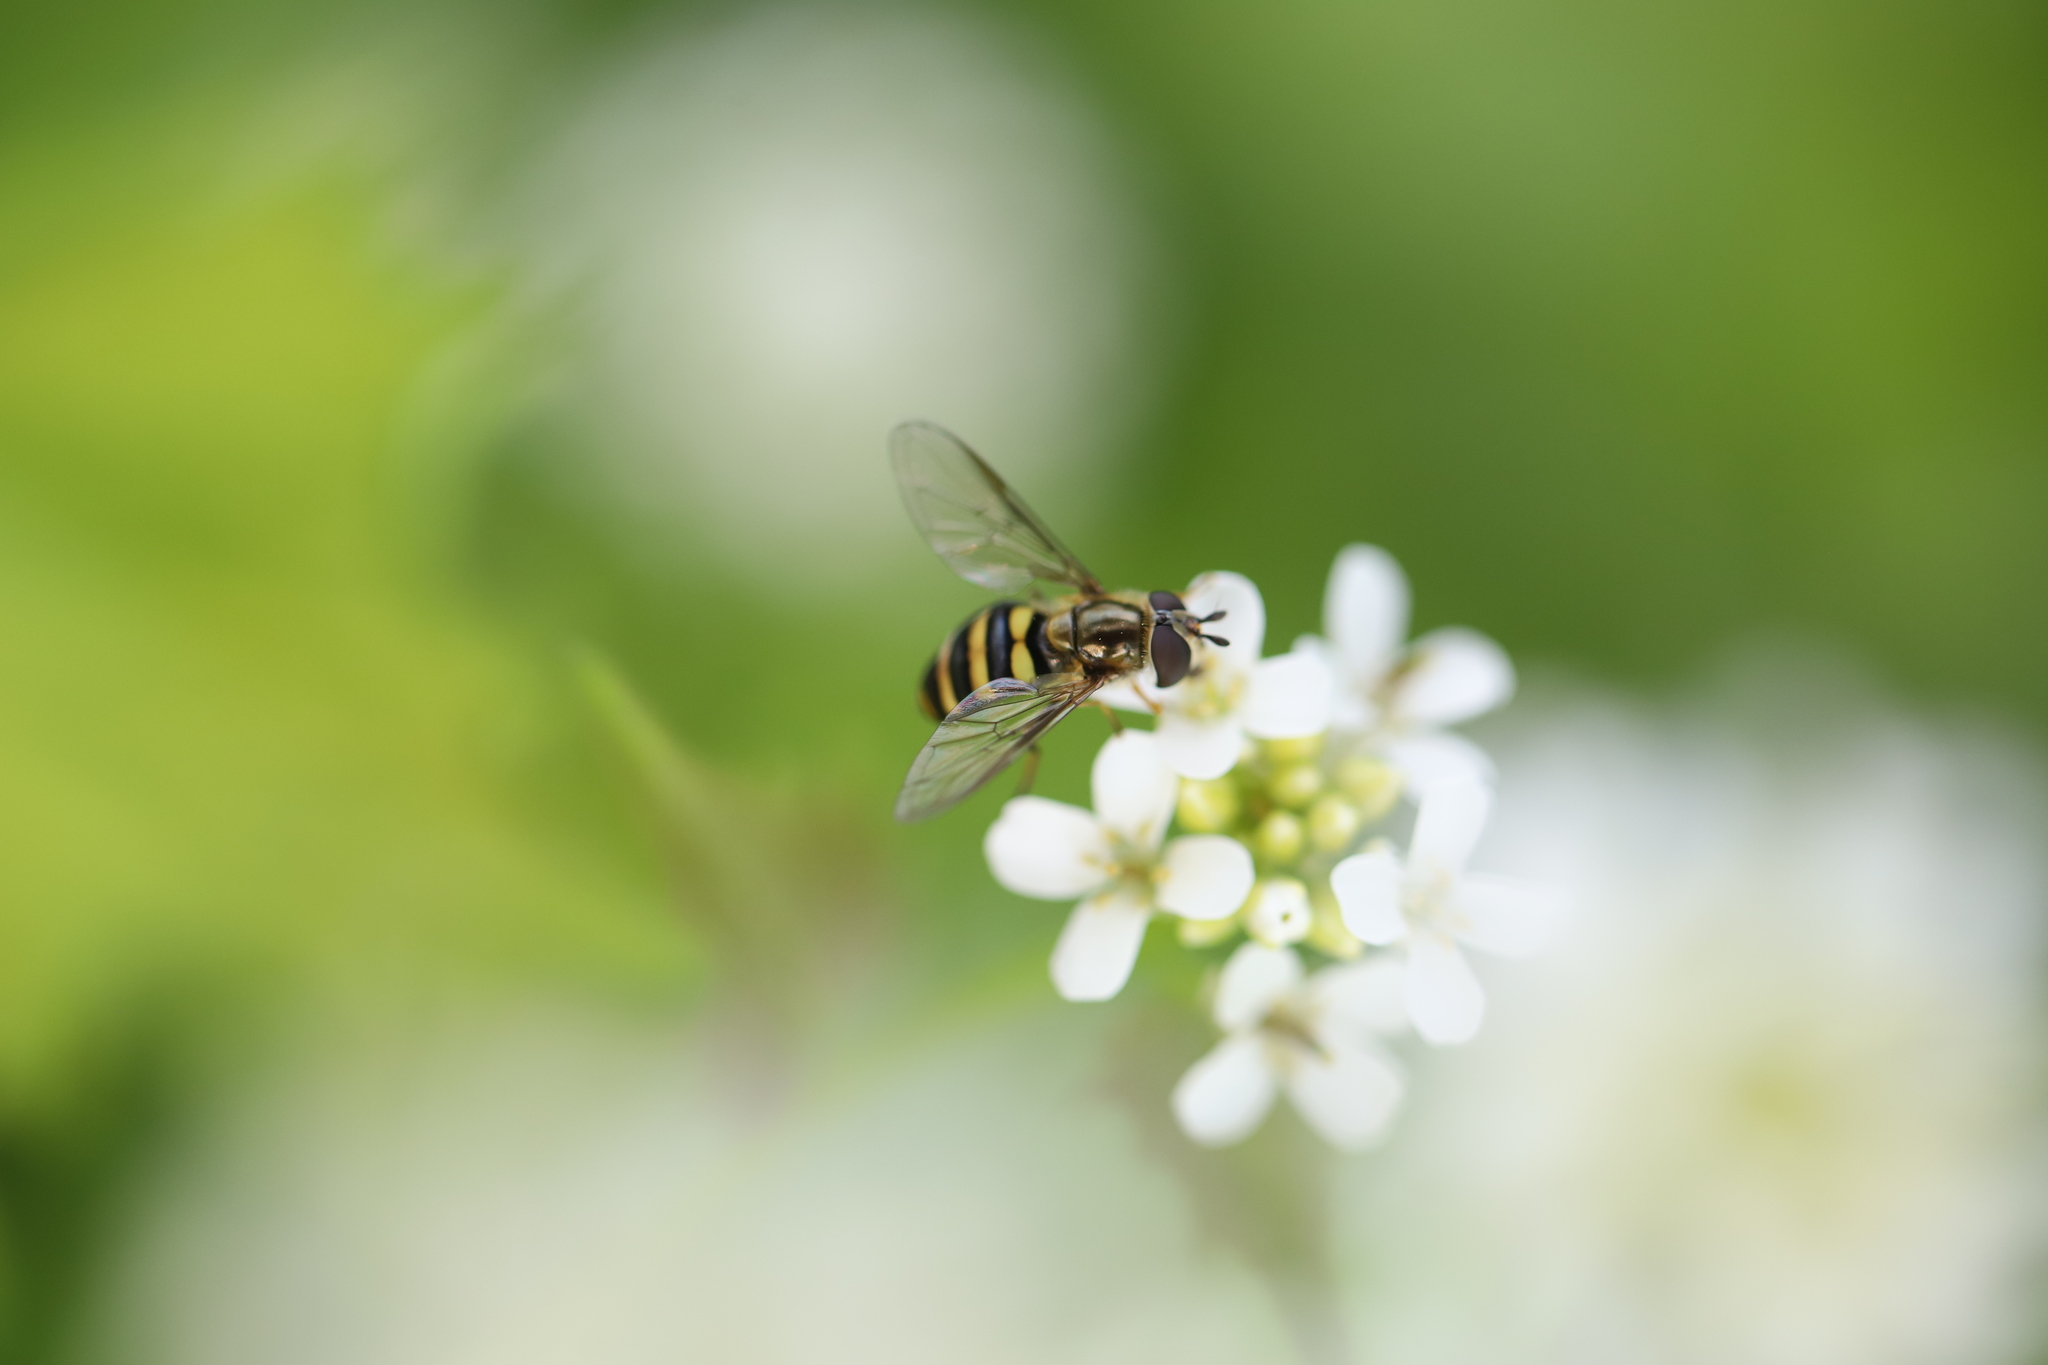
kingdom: Animalia
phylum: Arthropoda
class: Insecta
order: Diptera
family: Syrphidae
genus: Eupeodes
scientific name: Eupeodes
